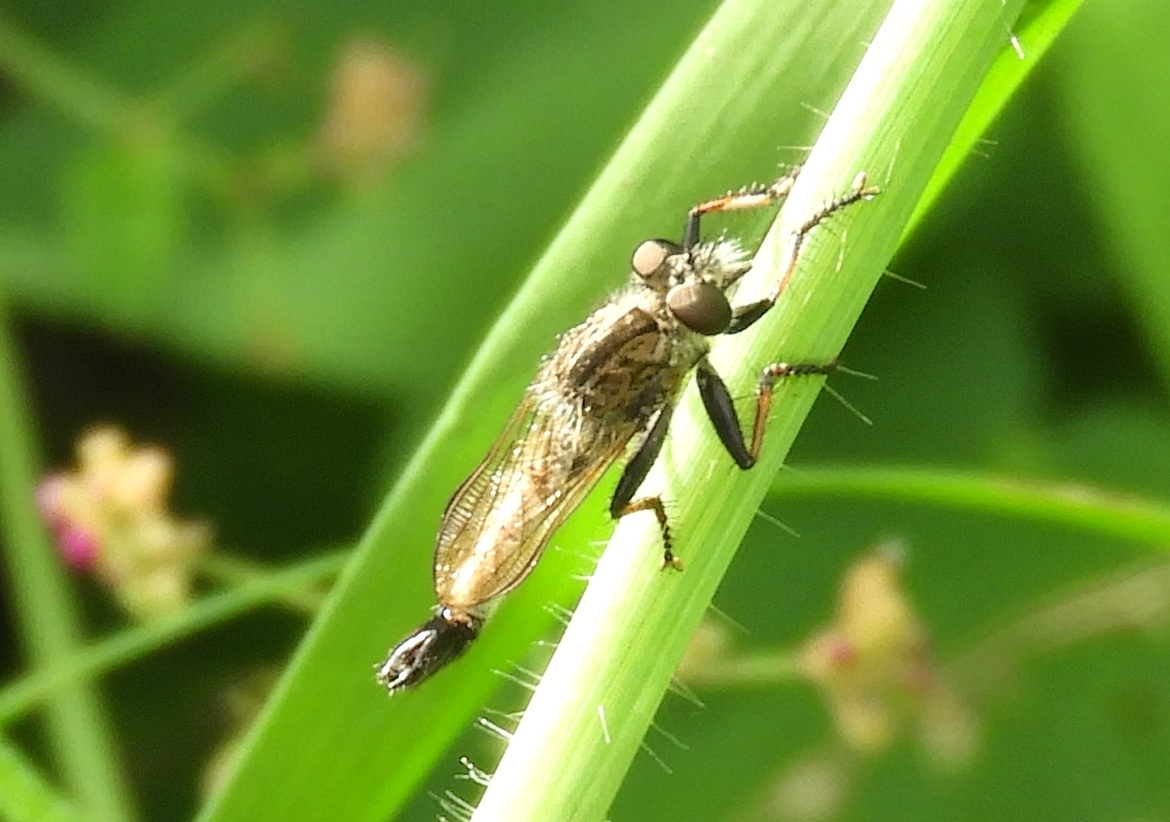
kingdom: Animalia
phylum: Arthropoda
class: Insecta
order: Diptera
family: Asilidae
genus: Efferia
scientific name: Efferia
